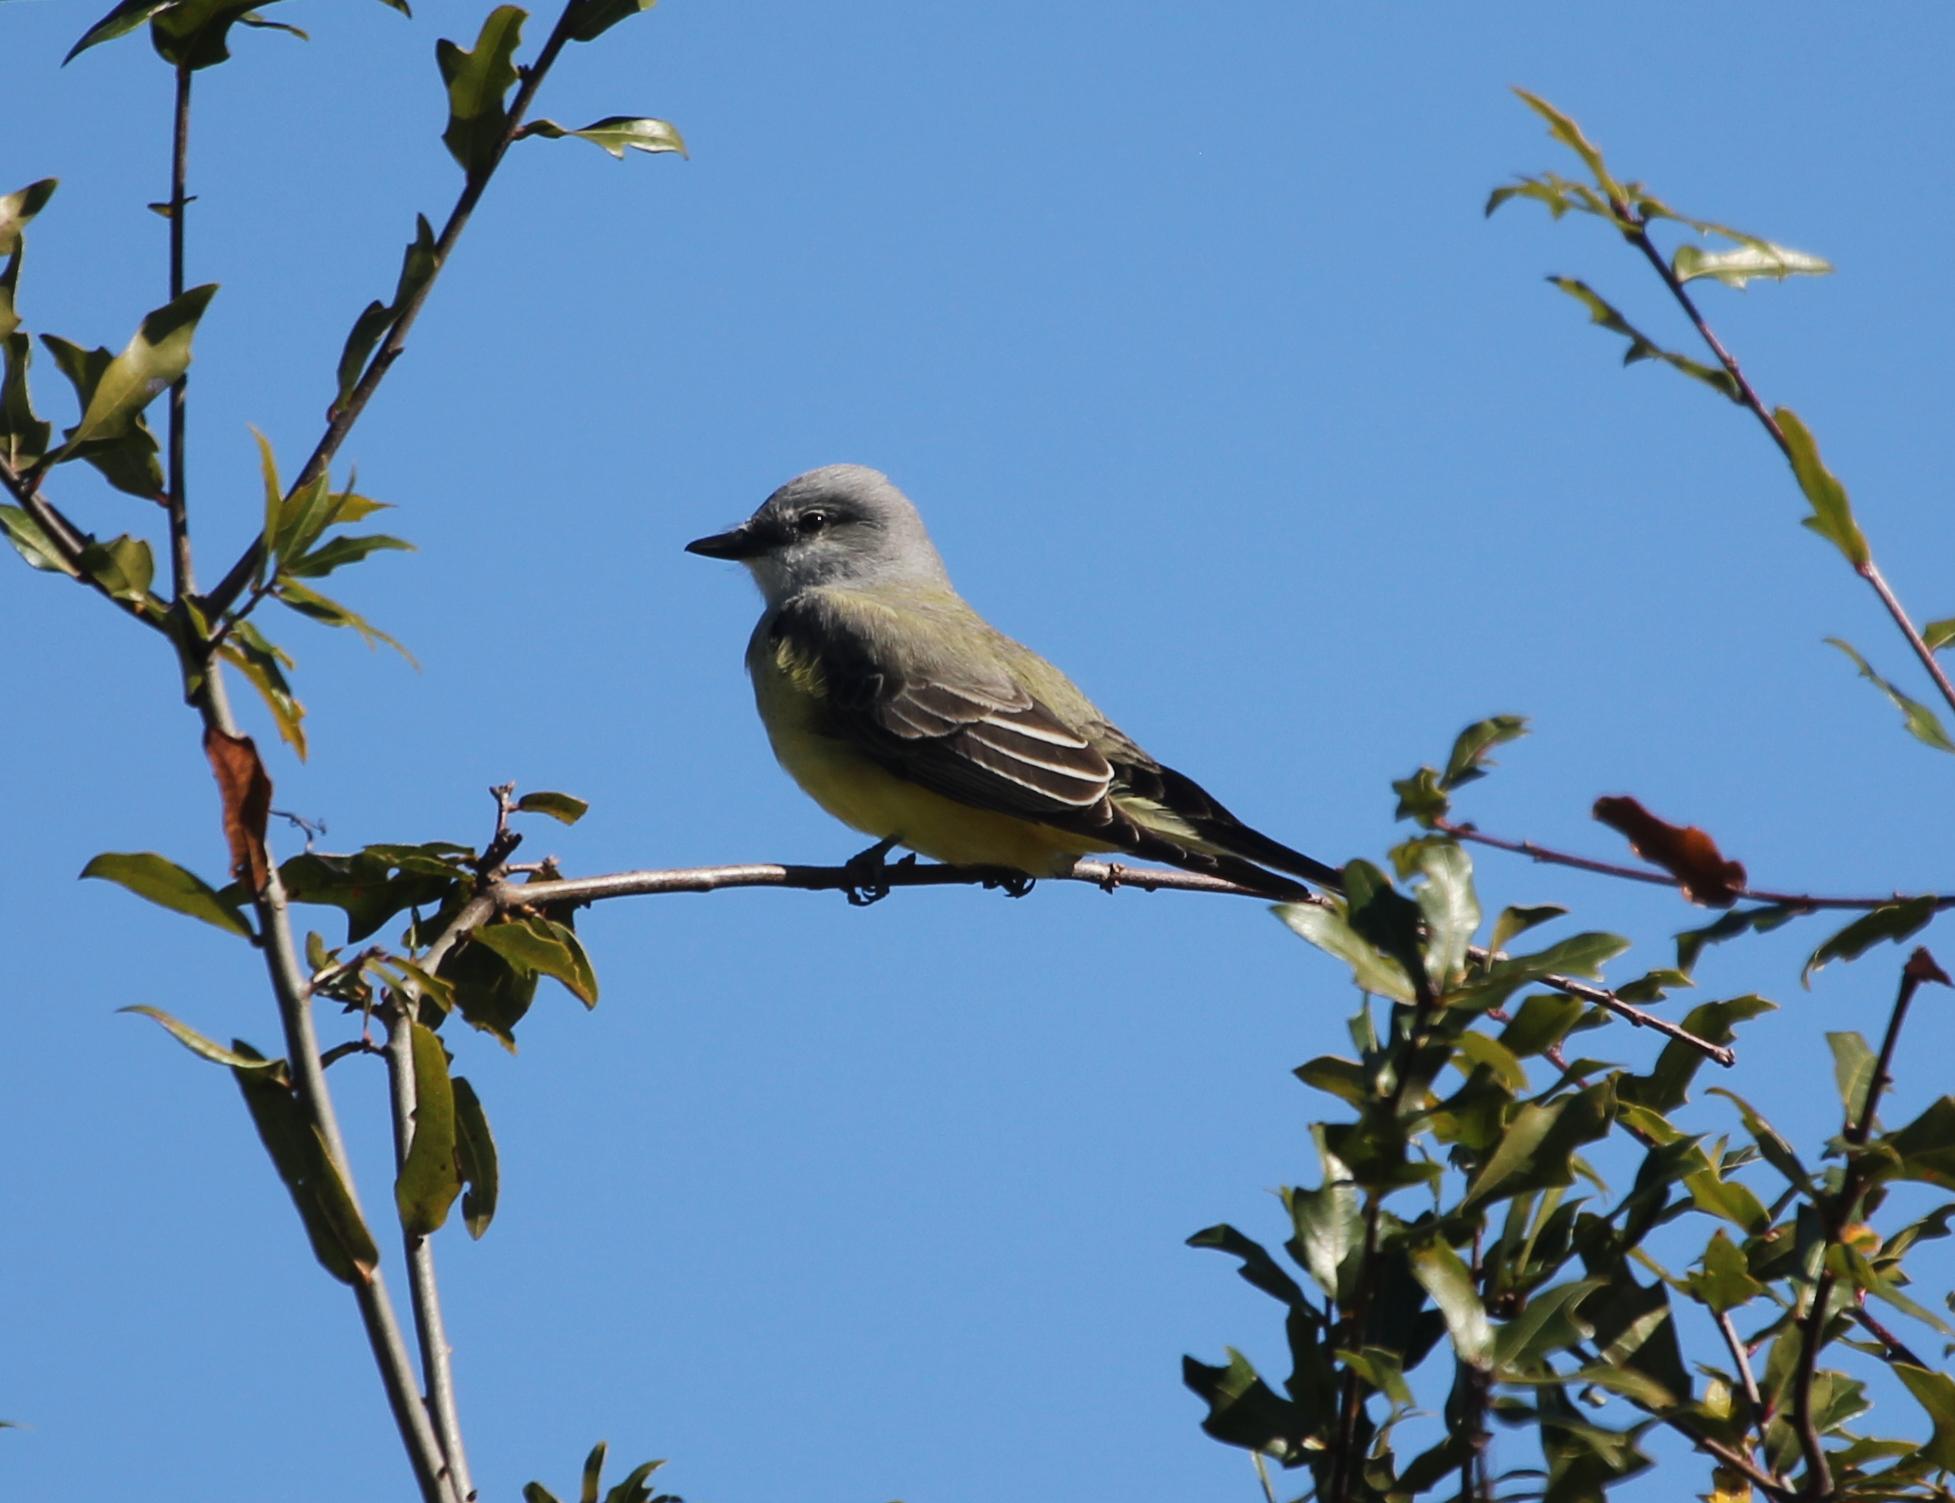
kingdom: Animalia
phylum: Chordata
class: Aves
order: Passeriformes
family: Tyrannidae
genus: Tyrannus
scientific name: Tyrannus verticalis
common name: Western kingbird
